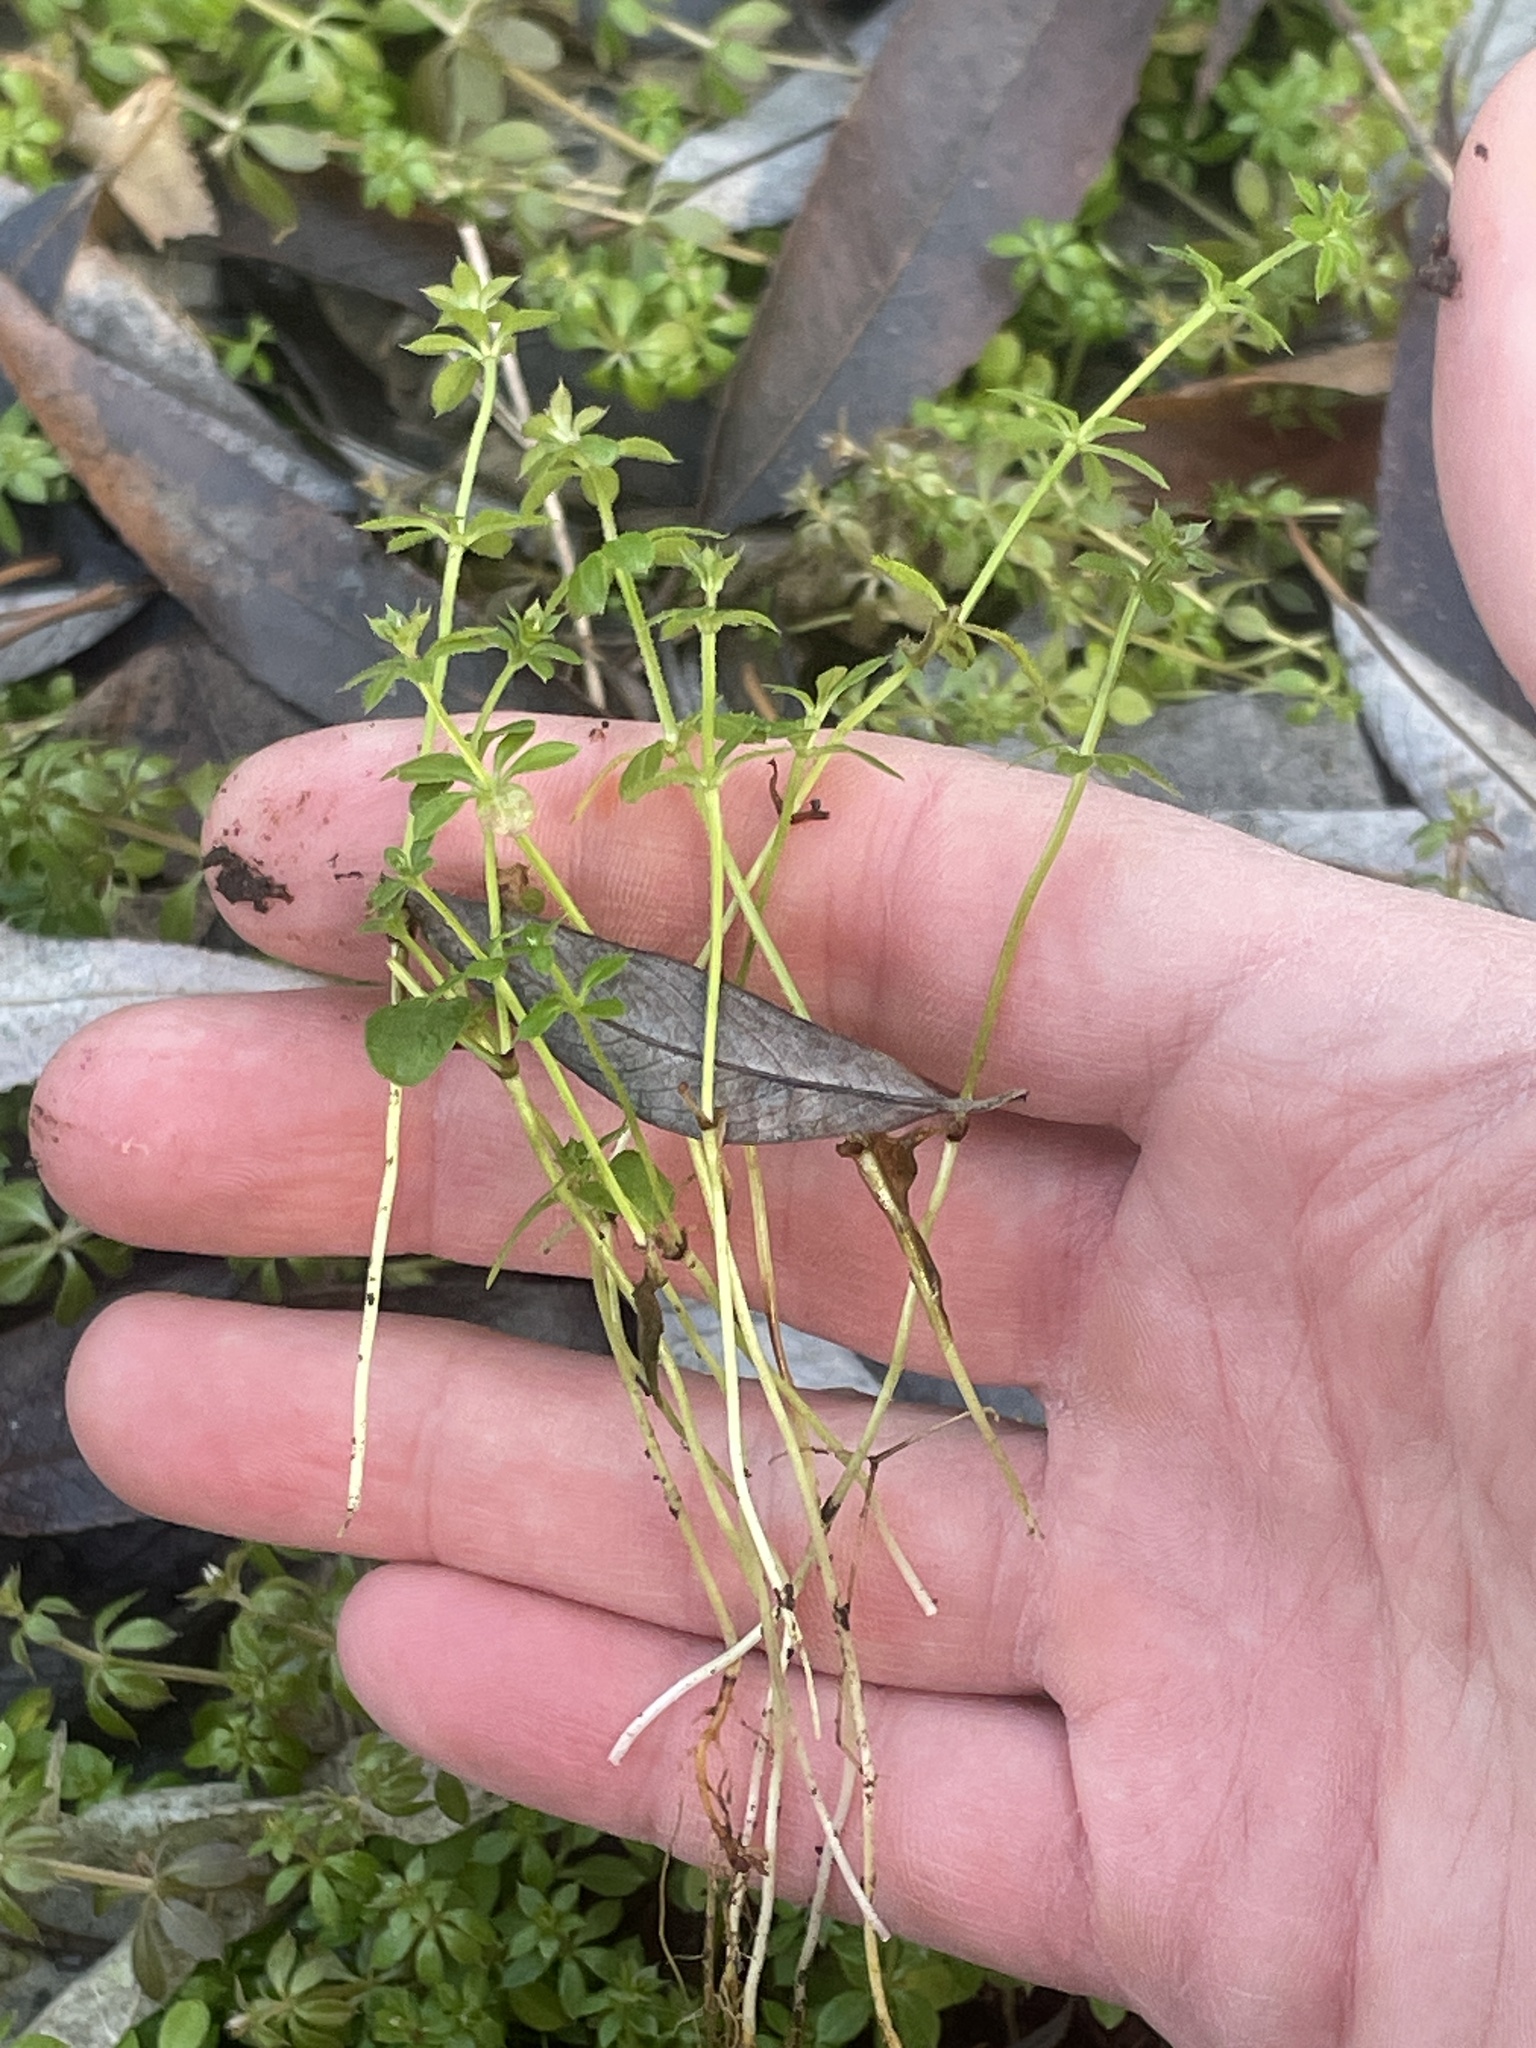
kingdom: Plantae
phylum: Tracheophyta
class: Magnoliopsida
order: Gentianales
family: Rubiaceae
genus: Galium
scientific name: Galium aparine
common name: Cleavers
